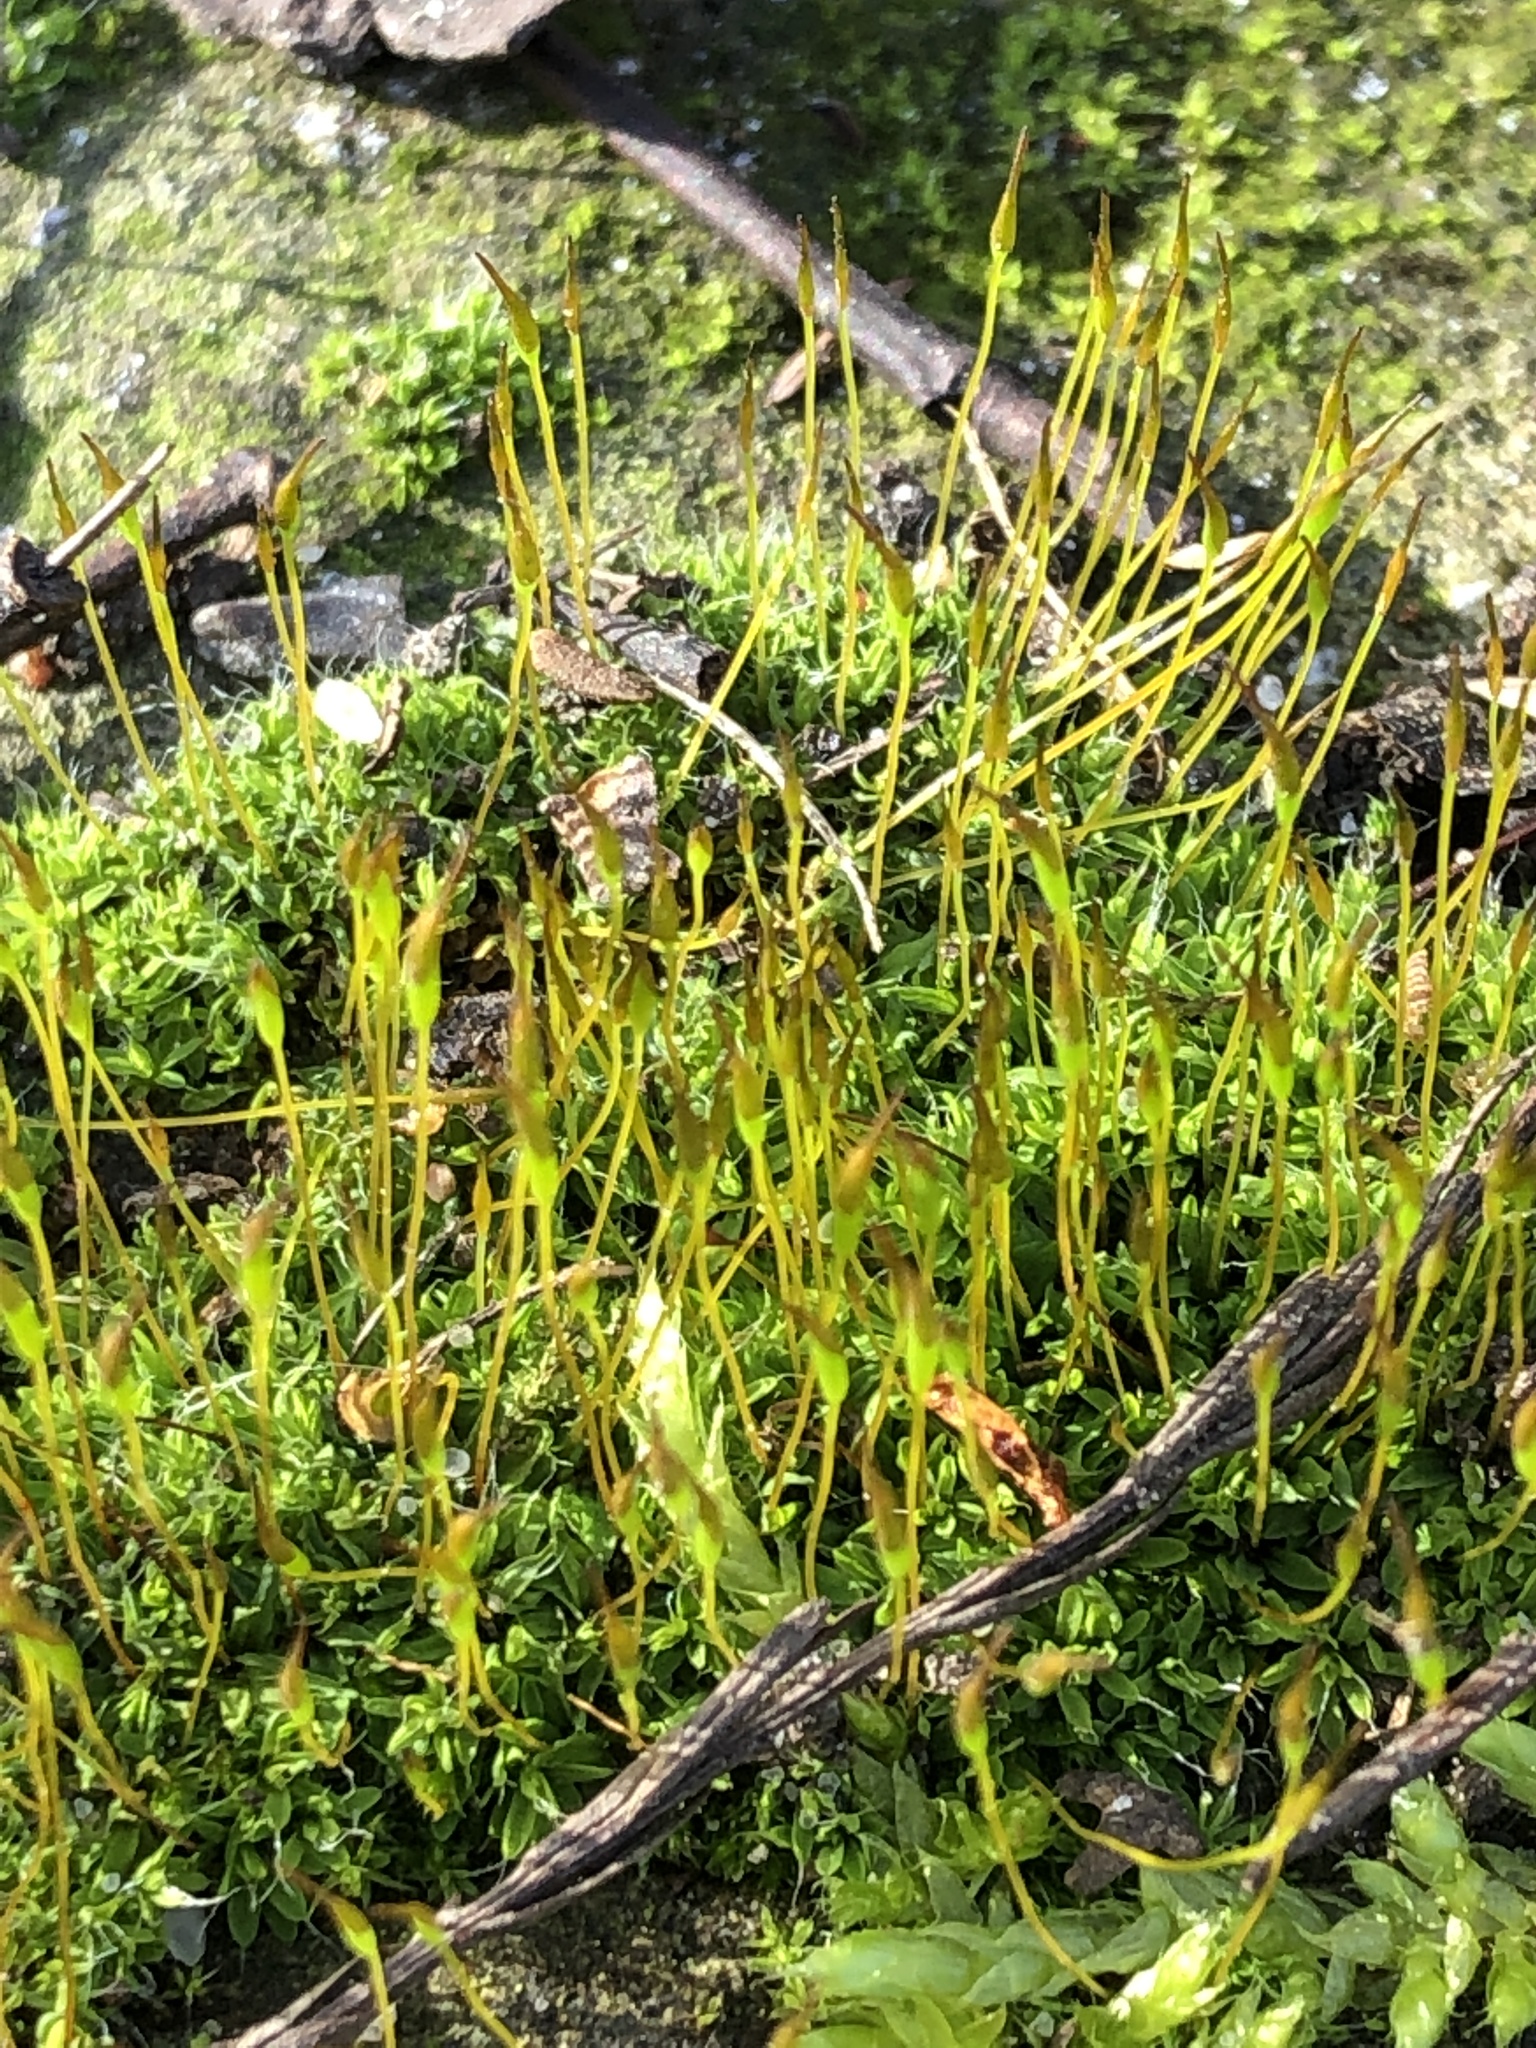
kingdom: Plantae
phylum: Bryophyta
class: Bryopsida
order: Pottiales
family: Pottiaceae
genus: Tortula
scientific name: Tortula muralis
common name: Wall screw-moss
